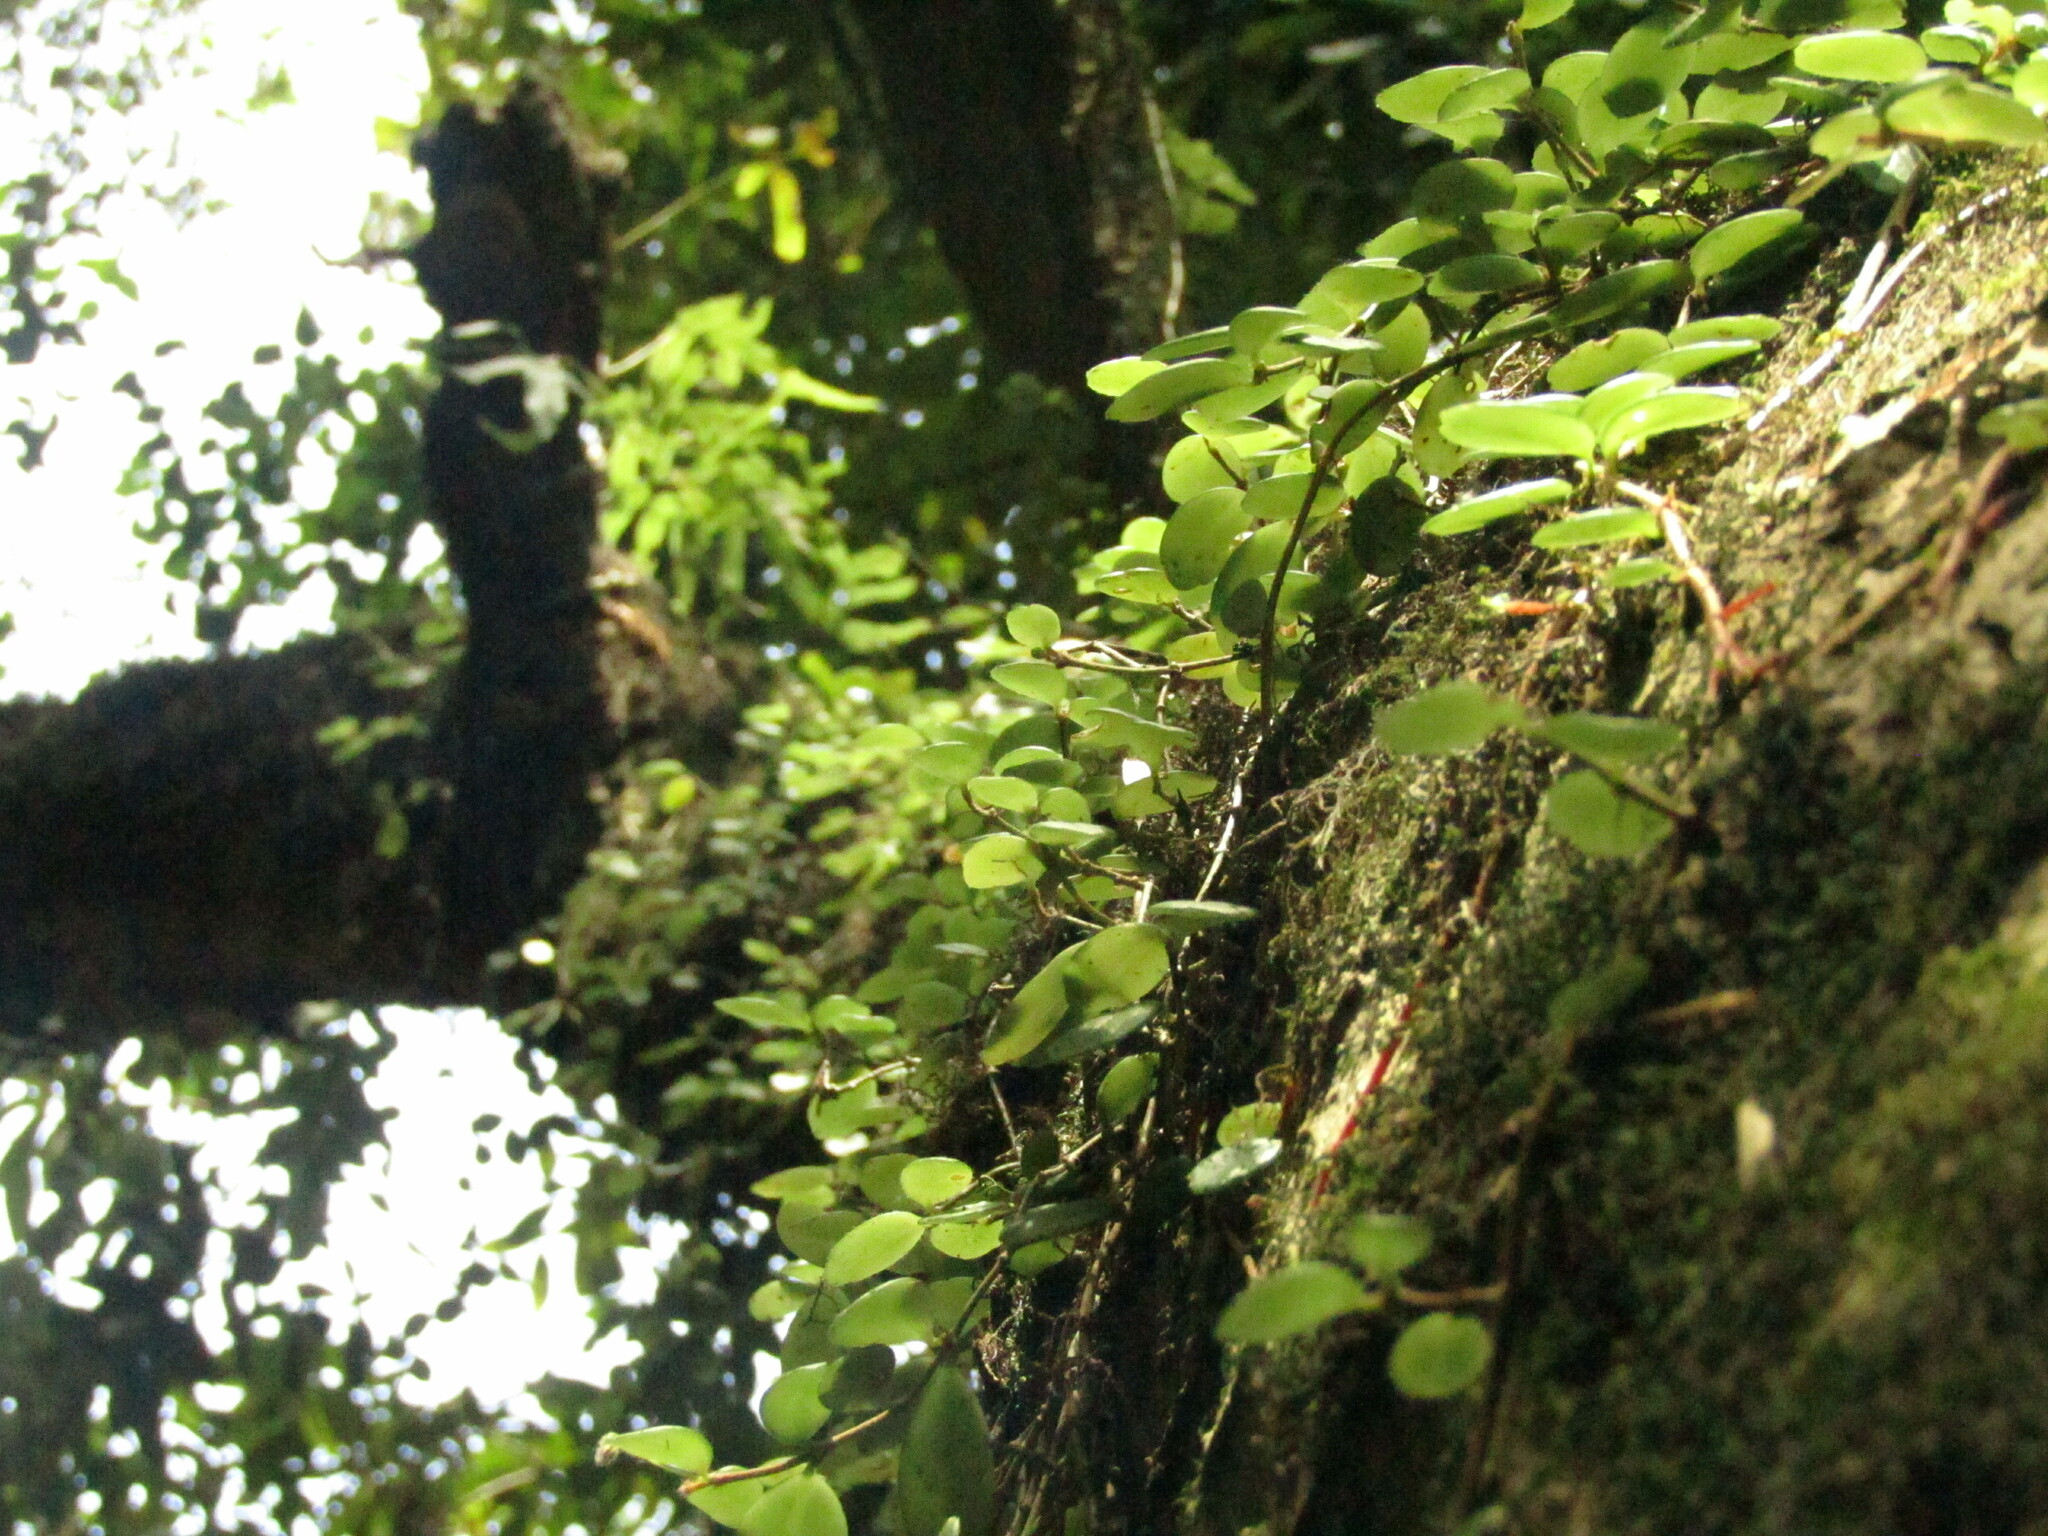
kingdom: Plantae
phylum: Tracheophyta
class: Magnoliopsida
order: Lamiales
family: Gesneriaceae
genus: Sarmienta
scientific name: Sarmienta scandens
